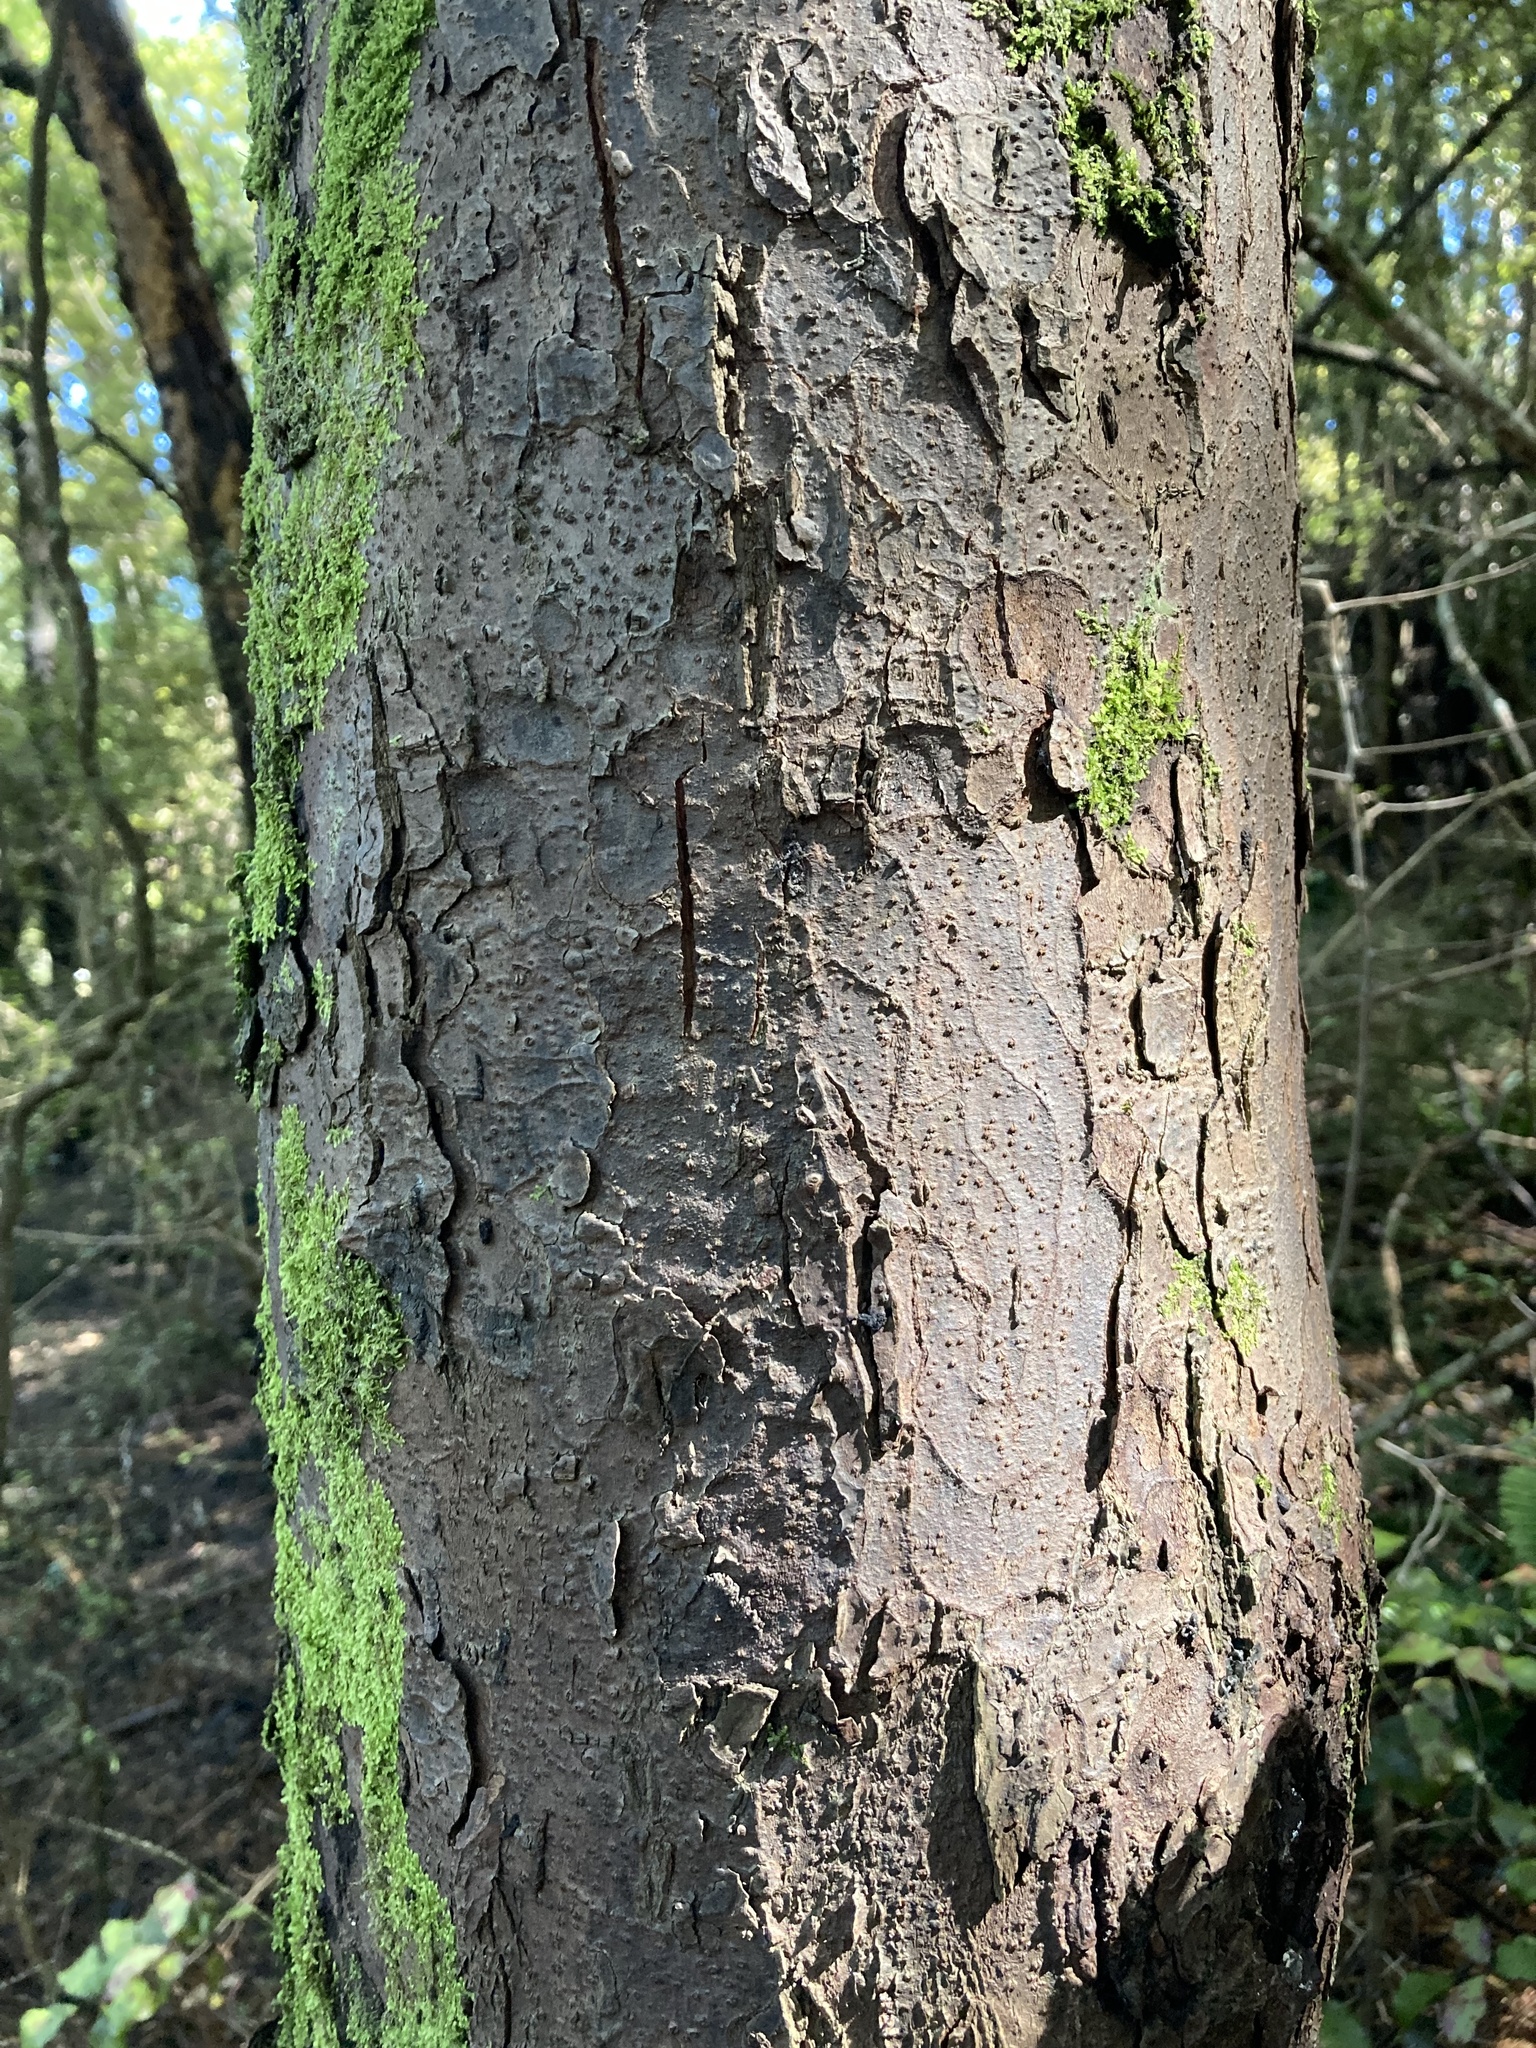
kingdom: Plantae
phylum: Tracheophyta
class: Pinopsida
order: Pinales
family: Podocarpaceae
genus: Dacrydium
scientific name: Dacrydium cupressinum
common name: Red pine
